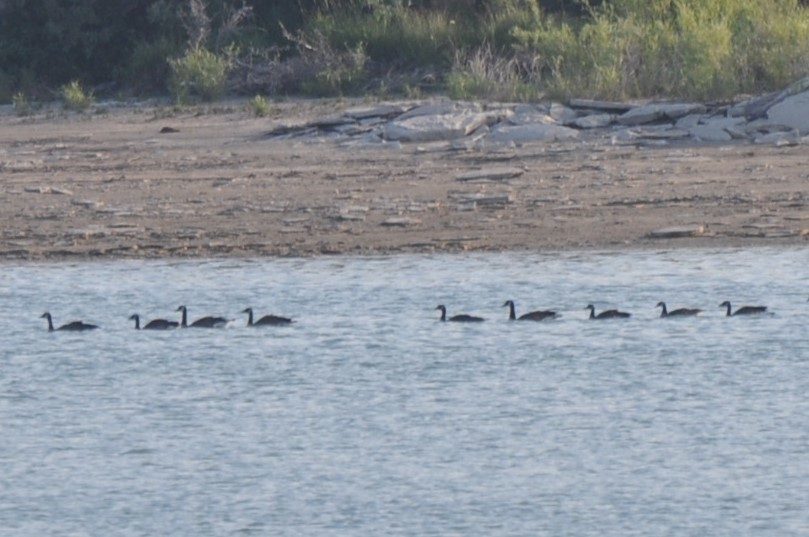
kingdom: Animalia
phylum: Chordata
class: Aves
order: Anseriformes
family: Anatidae
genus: Branta
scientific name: Branta canadensis
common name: Canada goose
